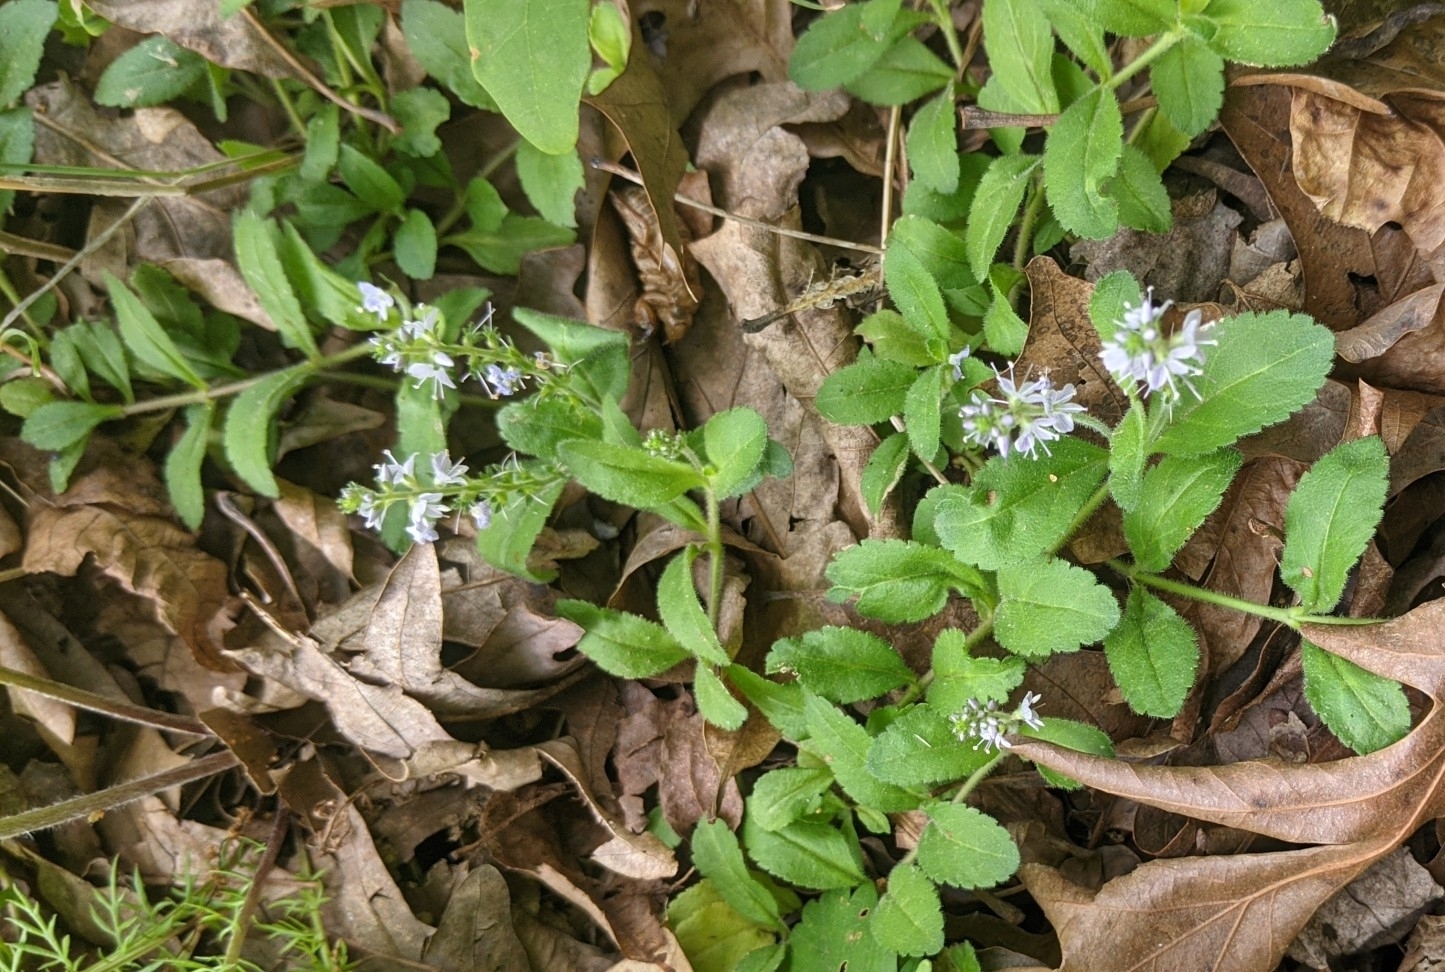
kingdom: Plantae
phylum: Tracheophyta
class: Magnoliopsida
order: Lamiales
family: Plantaginaceae
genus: Veronica
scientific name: Veronica officinalis
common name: Common speedwell
